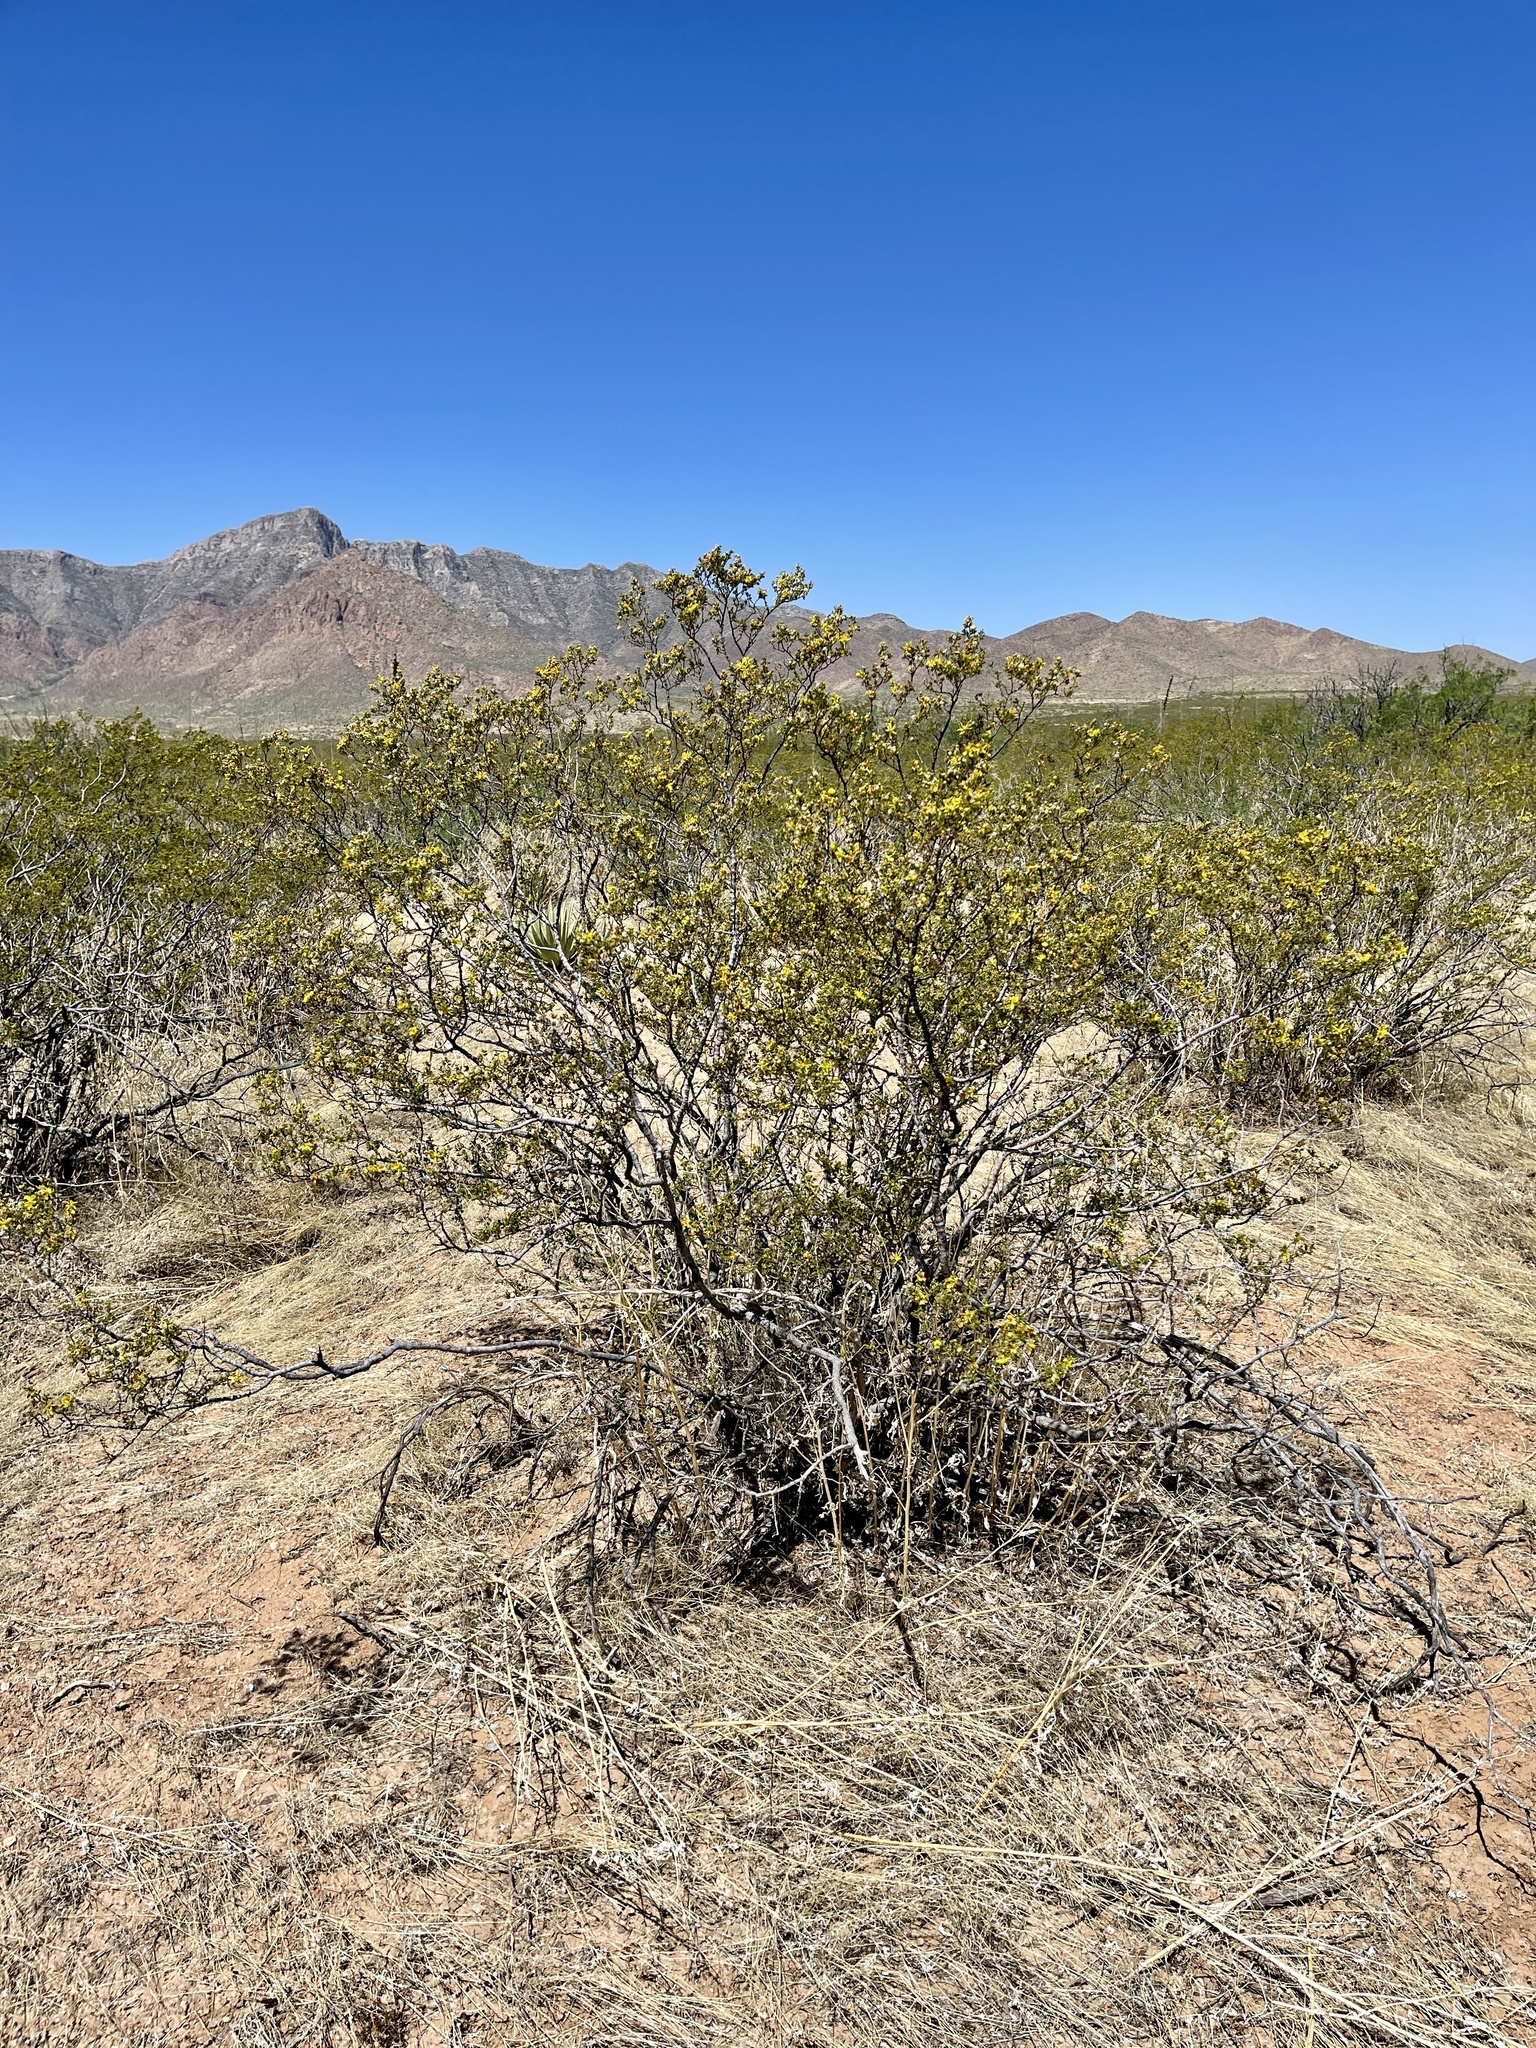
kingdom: Plantae
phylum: Tracheophyta
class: Magnoliopsida
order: Zygophyllales
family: Zygophyllaceae
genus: Larrea
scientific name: Larrea tridentata
